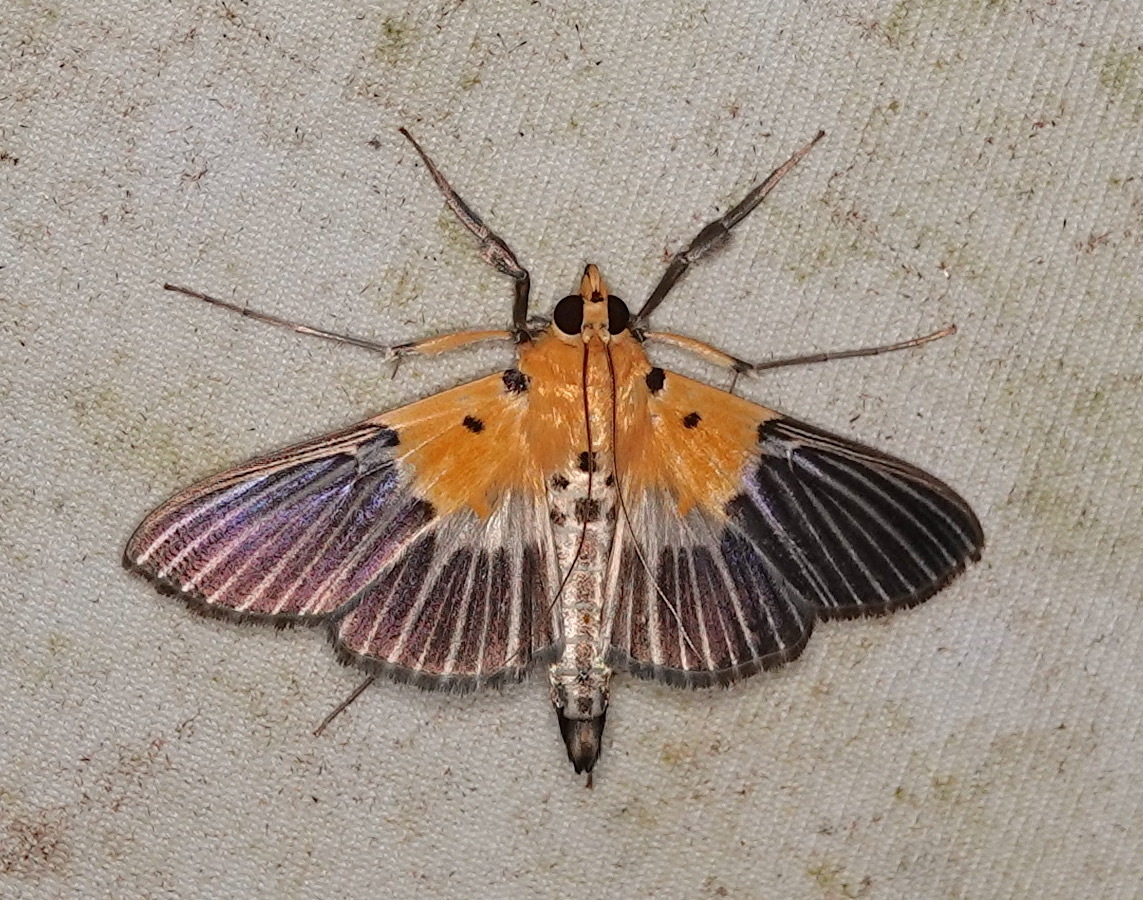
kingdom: Animalia
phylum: Arthropoda
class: Insecta
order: Lepidoptera
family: Crambidae
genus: Nevrina
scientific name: Nevrina procopia
